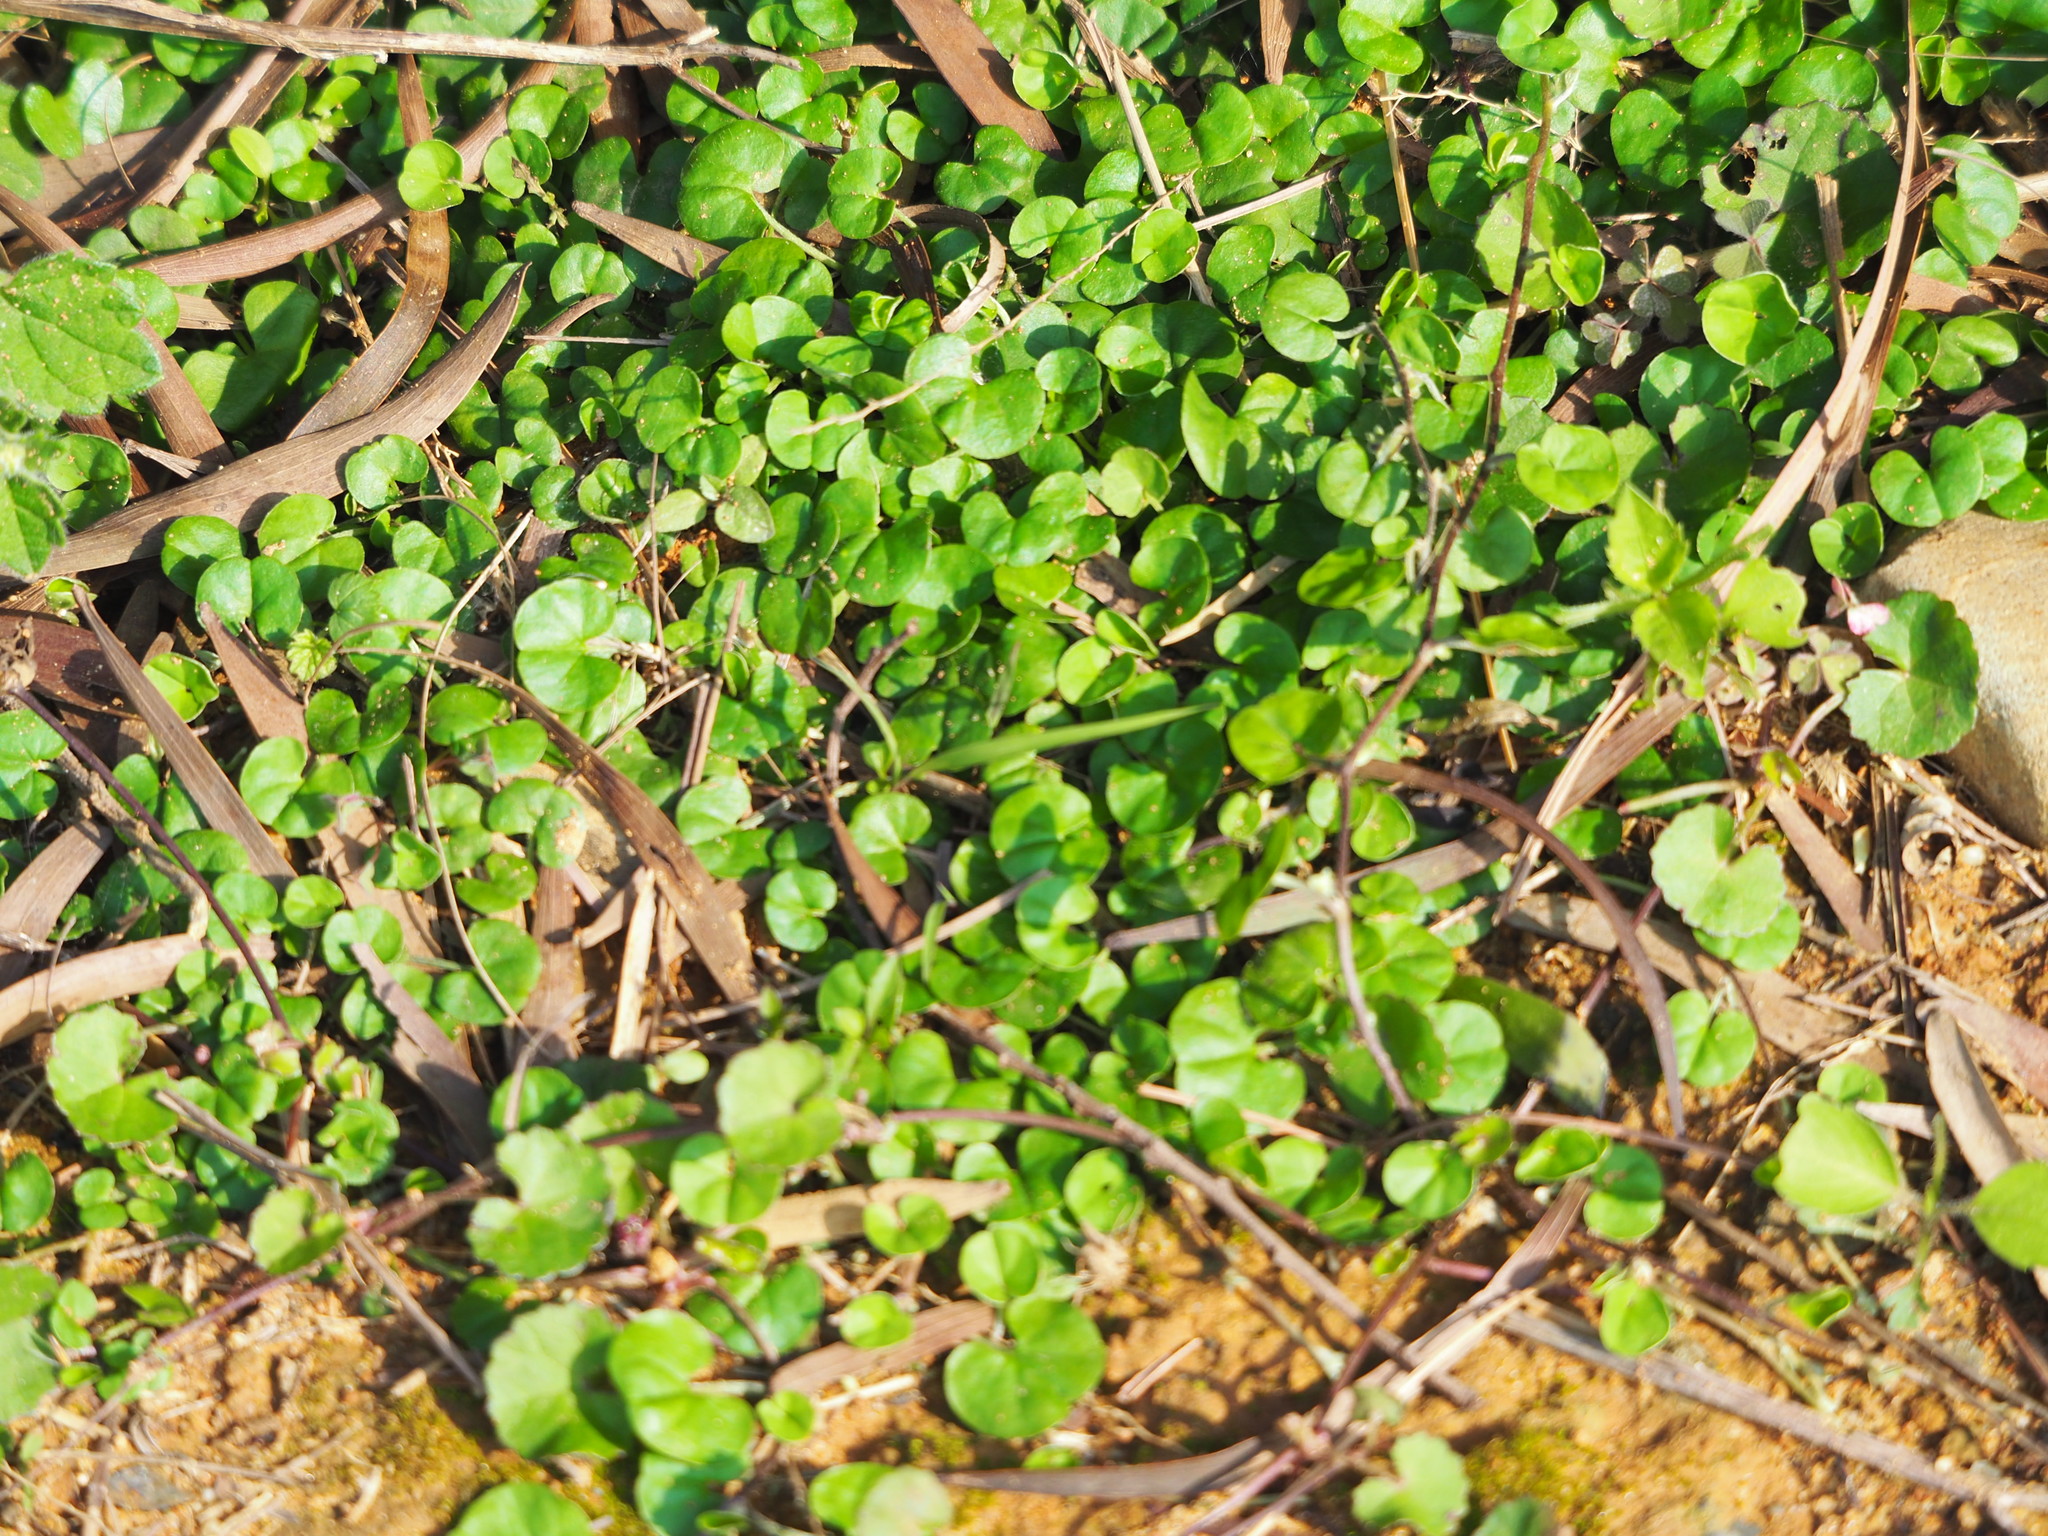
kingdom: Plantae
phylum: Tracheophyta
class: Magnoliopsida
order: Solanales
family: Convolvulaceae
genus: Dichondra
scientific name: Dichondra micrantha
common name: Kidneyweed
